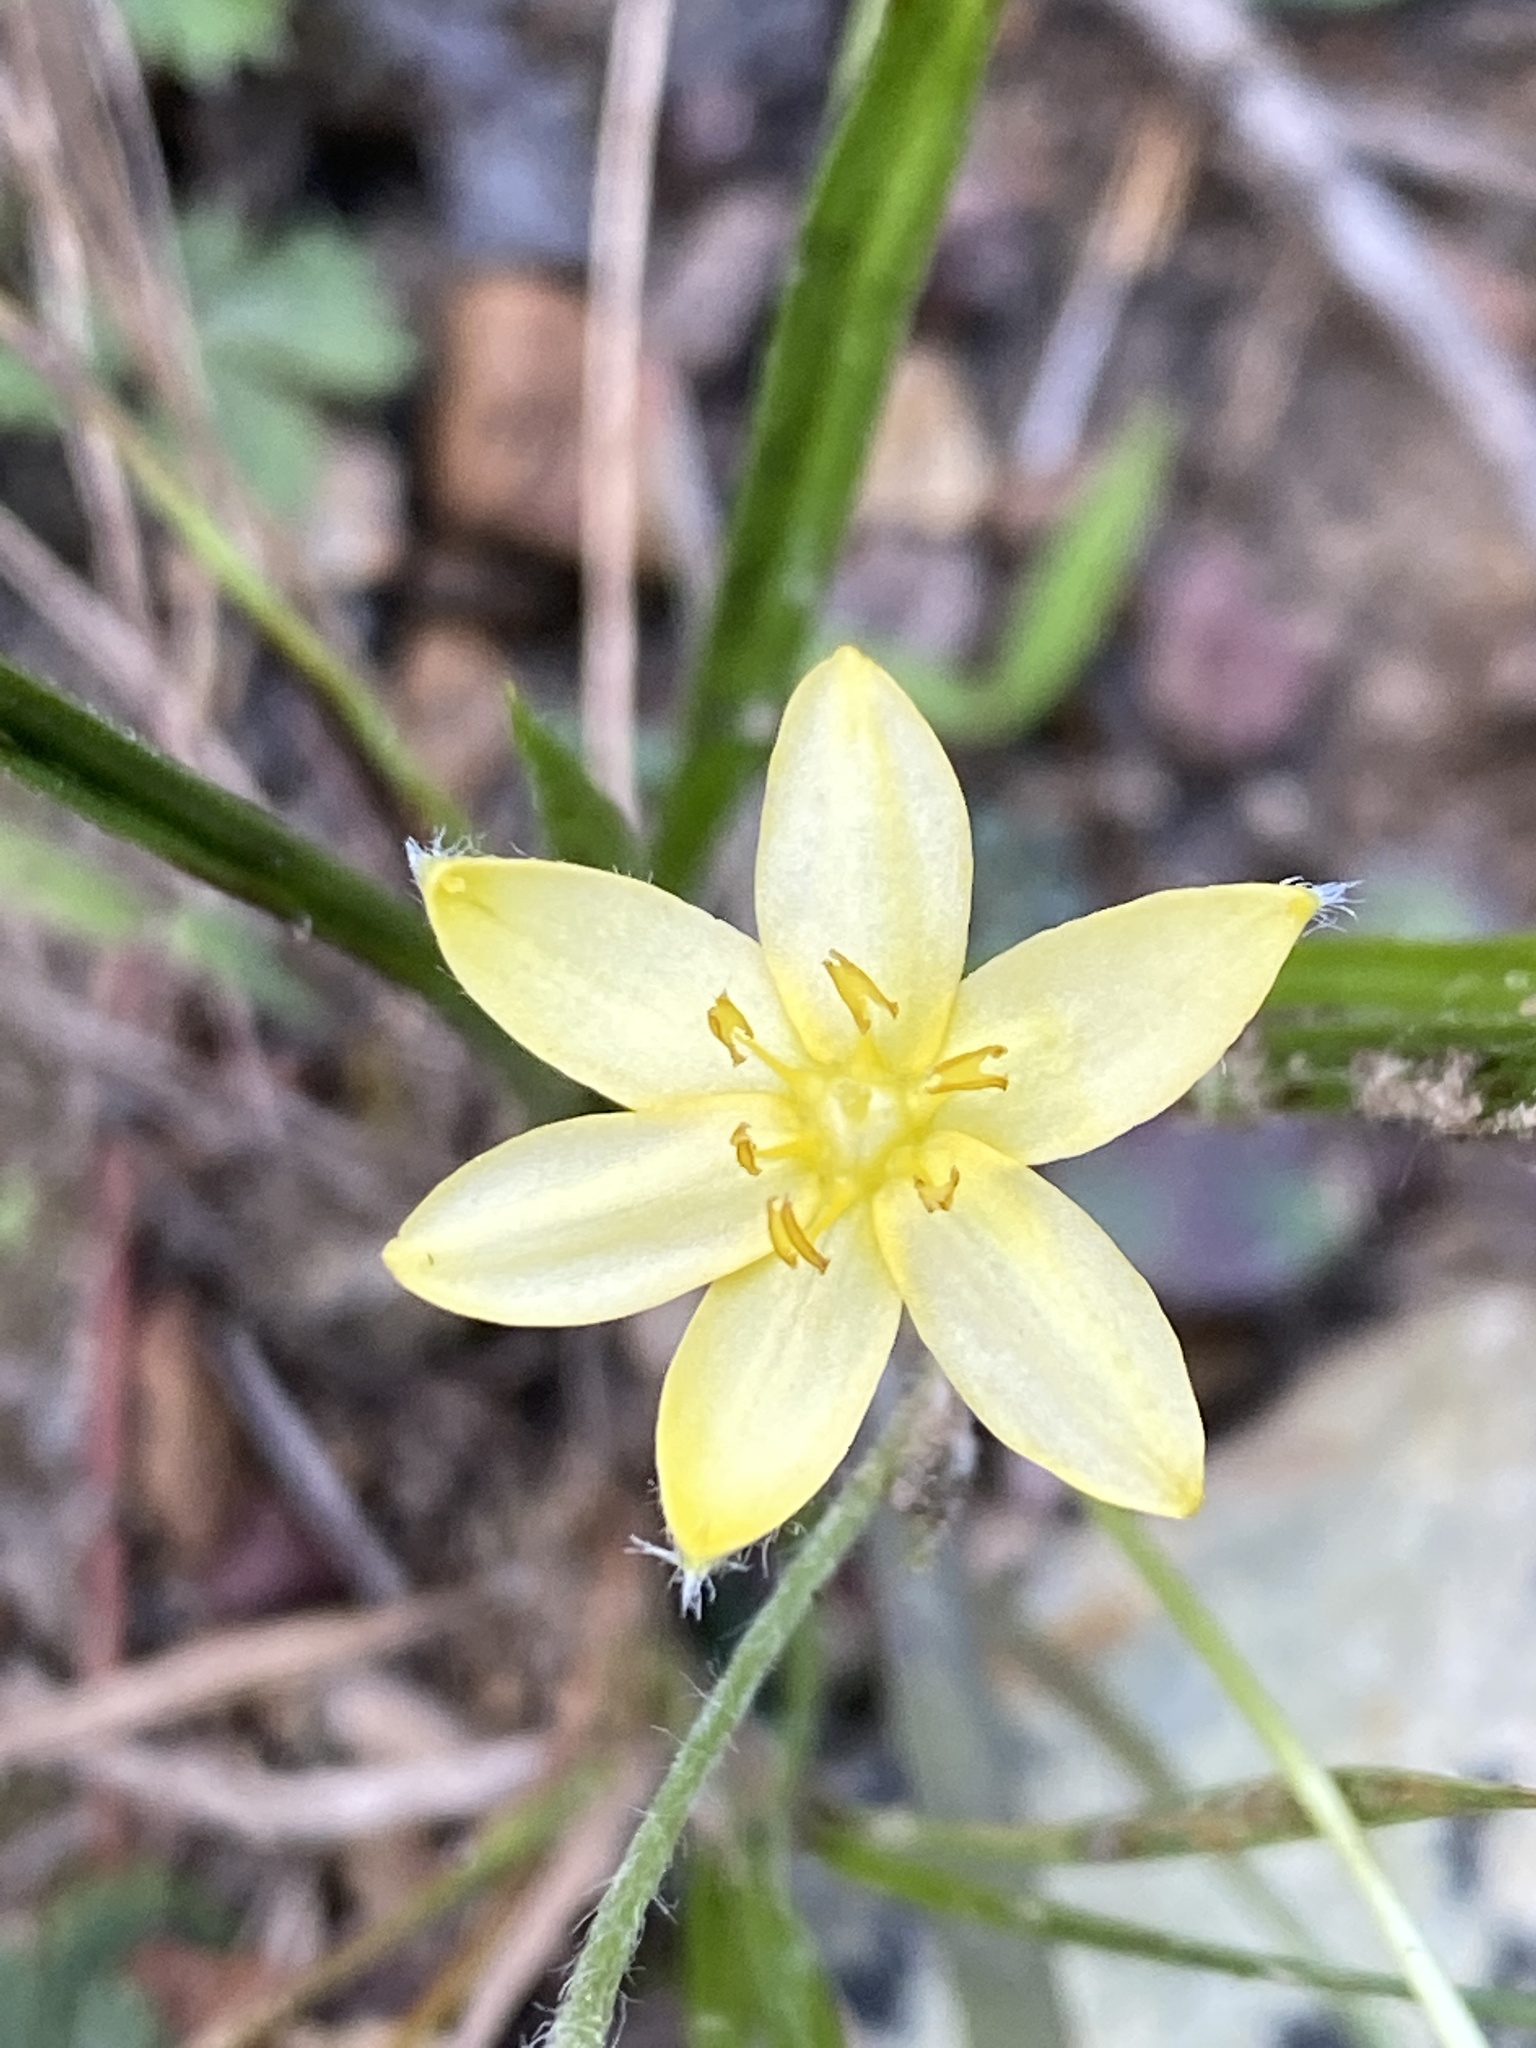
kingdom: Plantae
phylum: Tracheophyta
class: Liliopsida
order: Asparagales
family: Hypoxidaceae
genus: Hypoxis
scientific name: Hypoxis hirsuta
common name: Common goldstar
